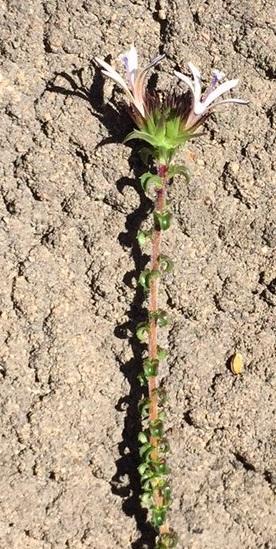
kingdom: Plantae
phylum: Tracheophyta
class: Magnoliopsida
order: Asterales
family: Campanulaceae
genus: Wahlenbergia
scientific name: Wahlenbergia desmantha
